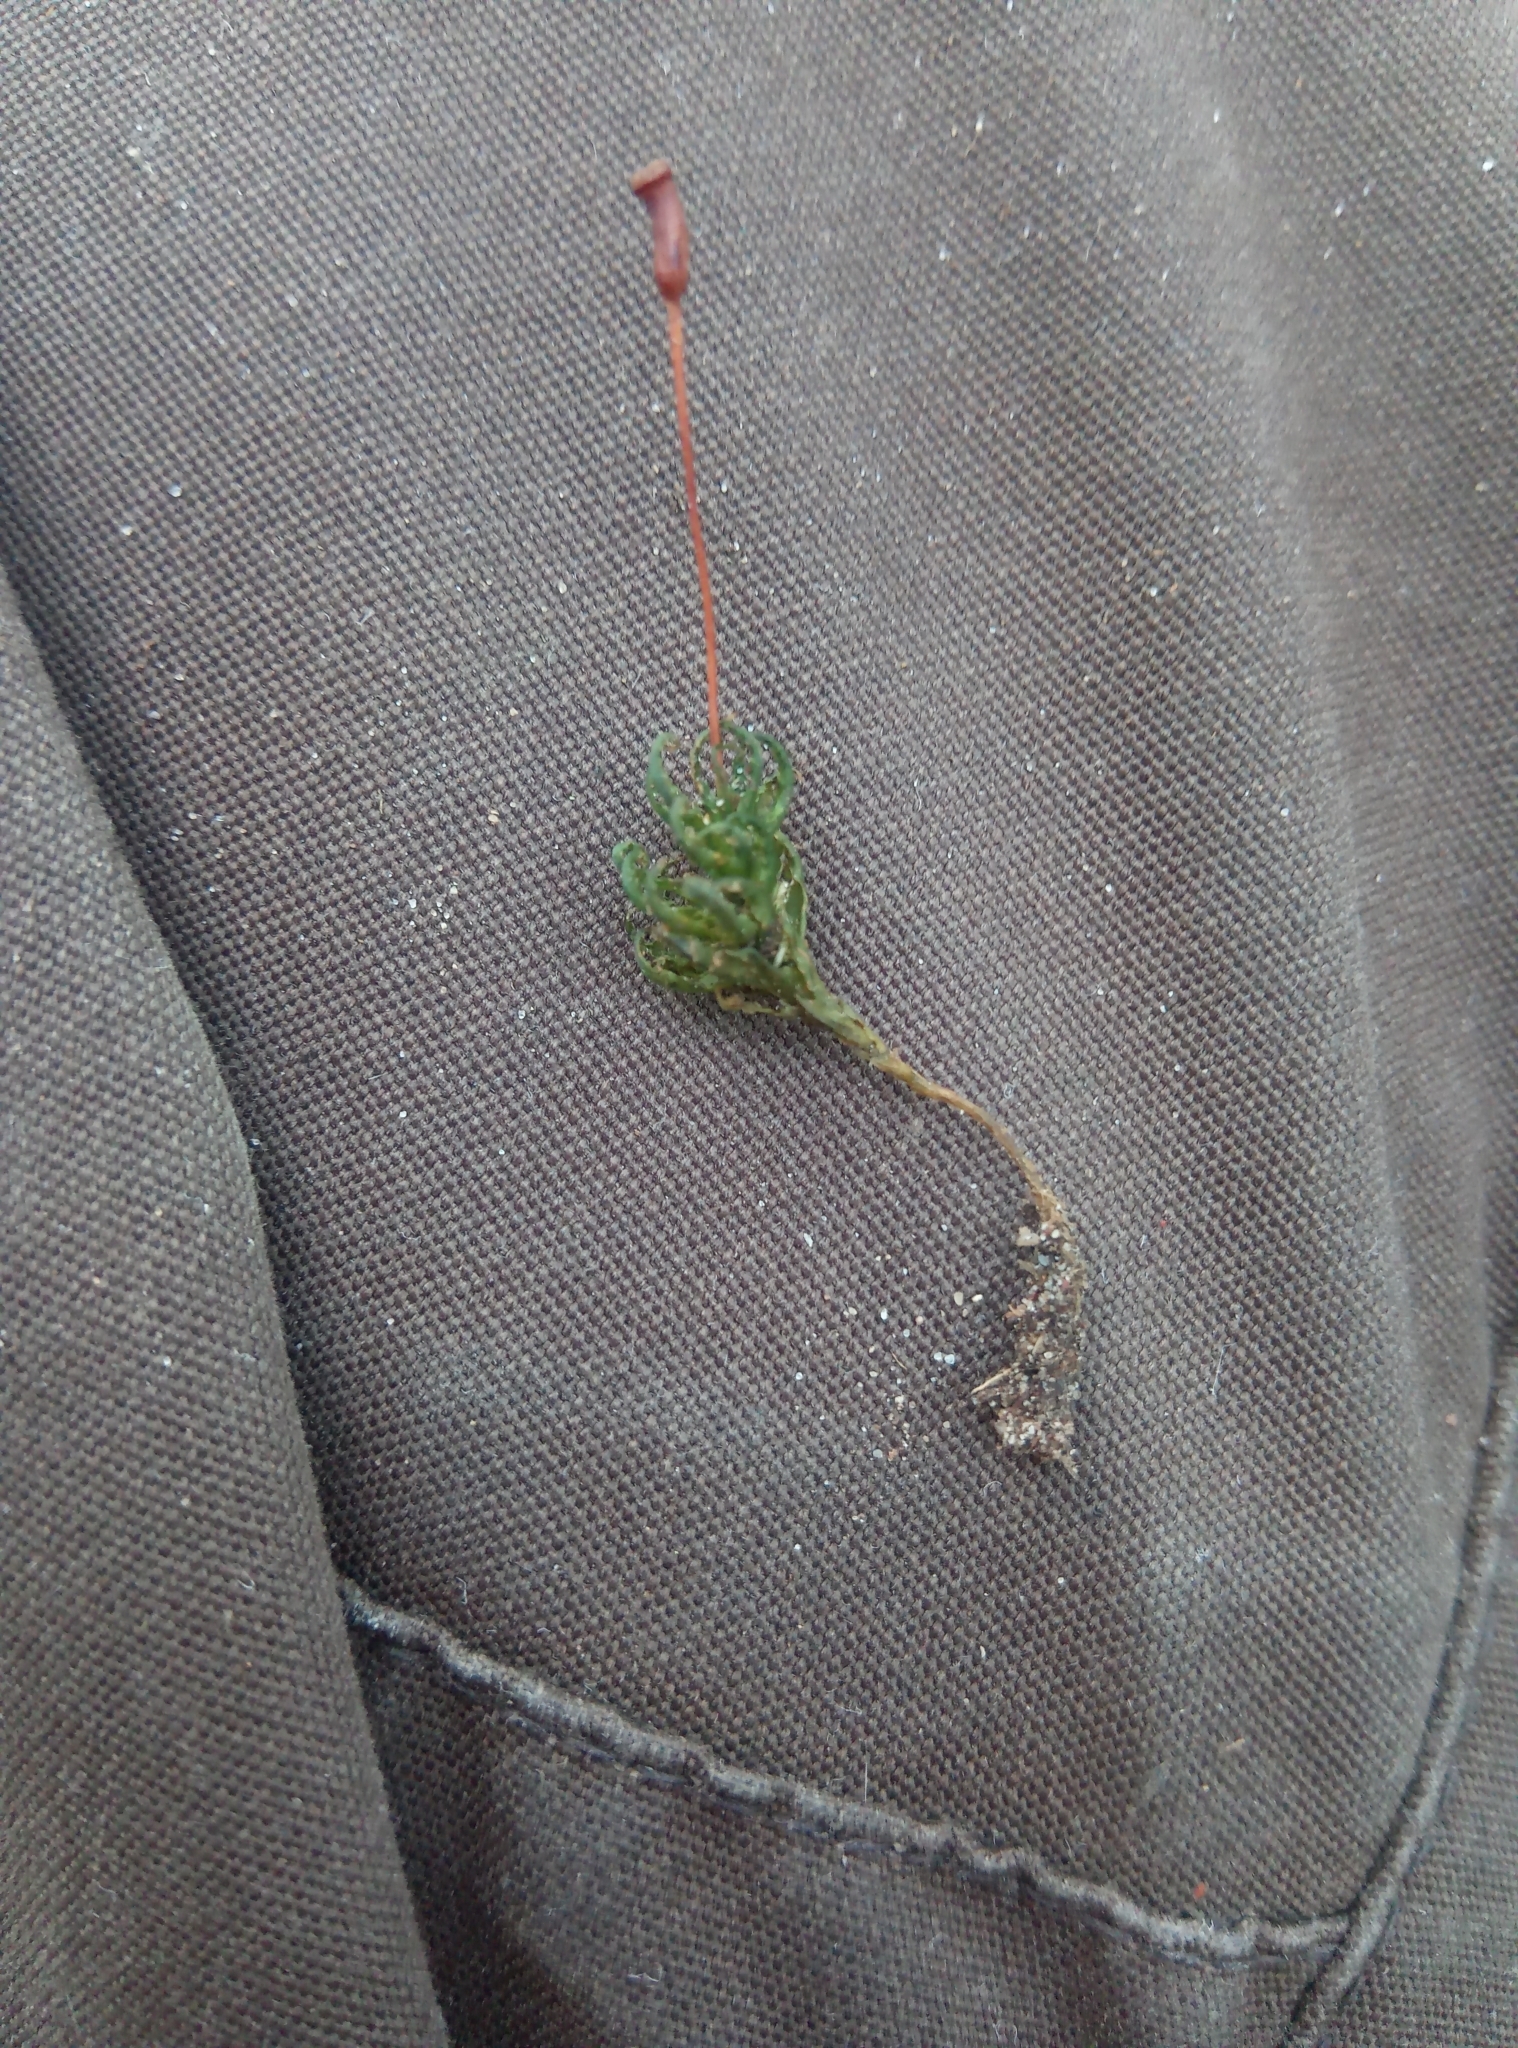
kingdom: Plantae
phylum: Bryophyta
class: Polytrichopsida
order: Polytrichales
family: Polytrichaceae
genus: Atrichum
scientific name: Atrichum undulatum
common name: Common smoothcap
